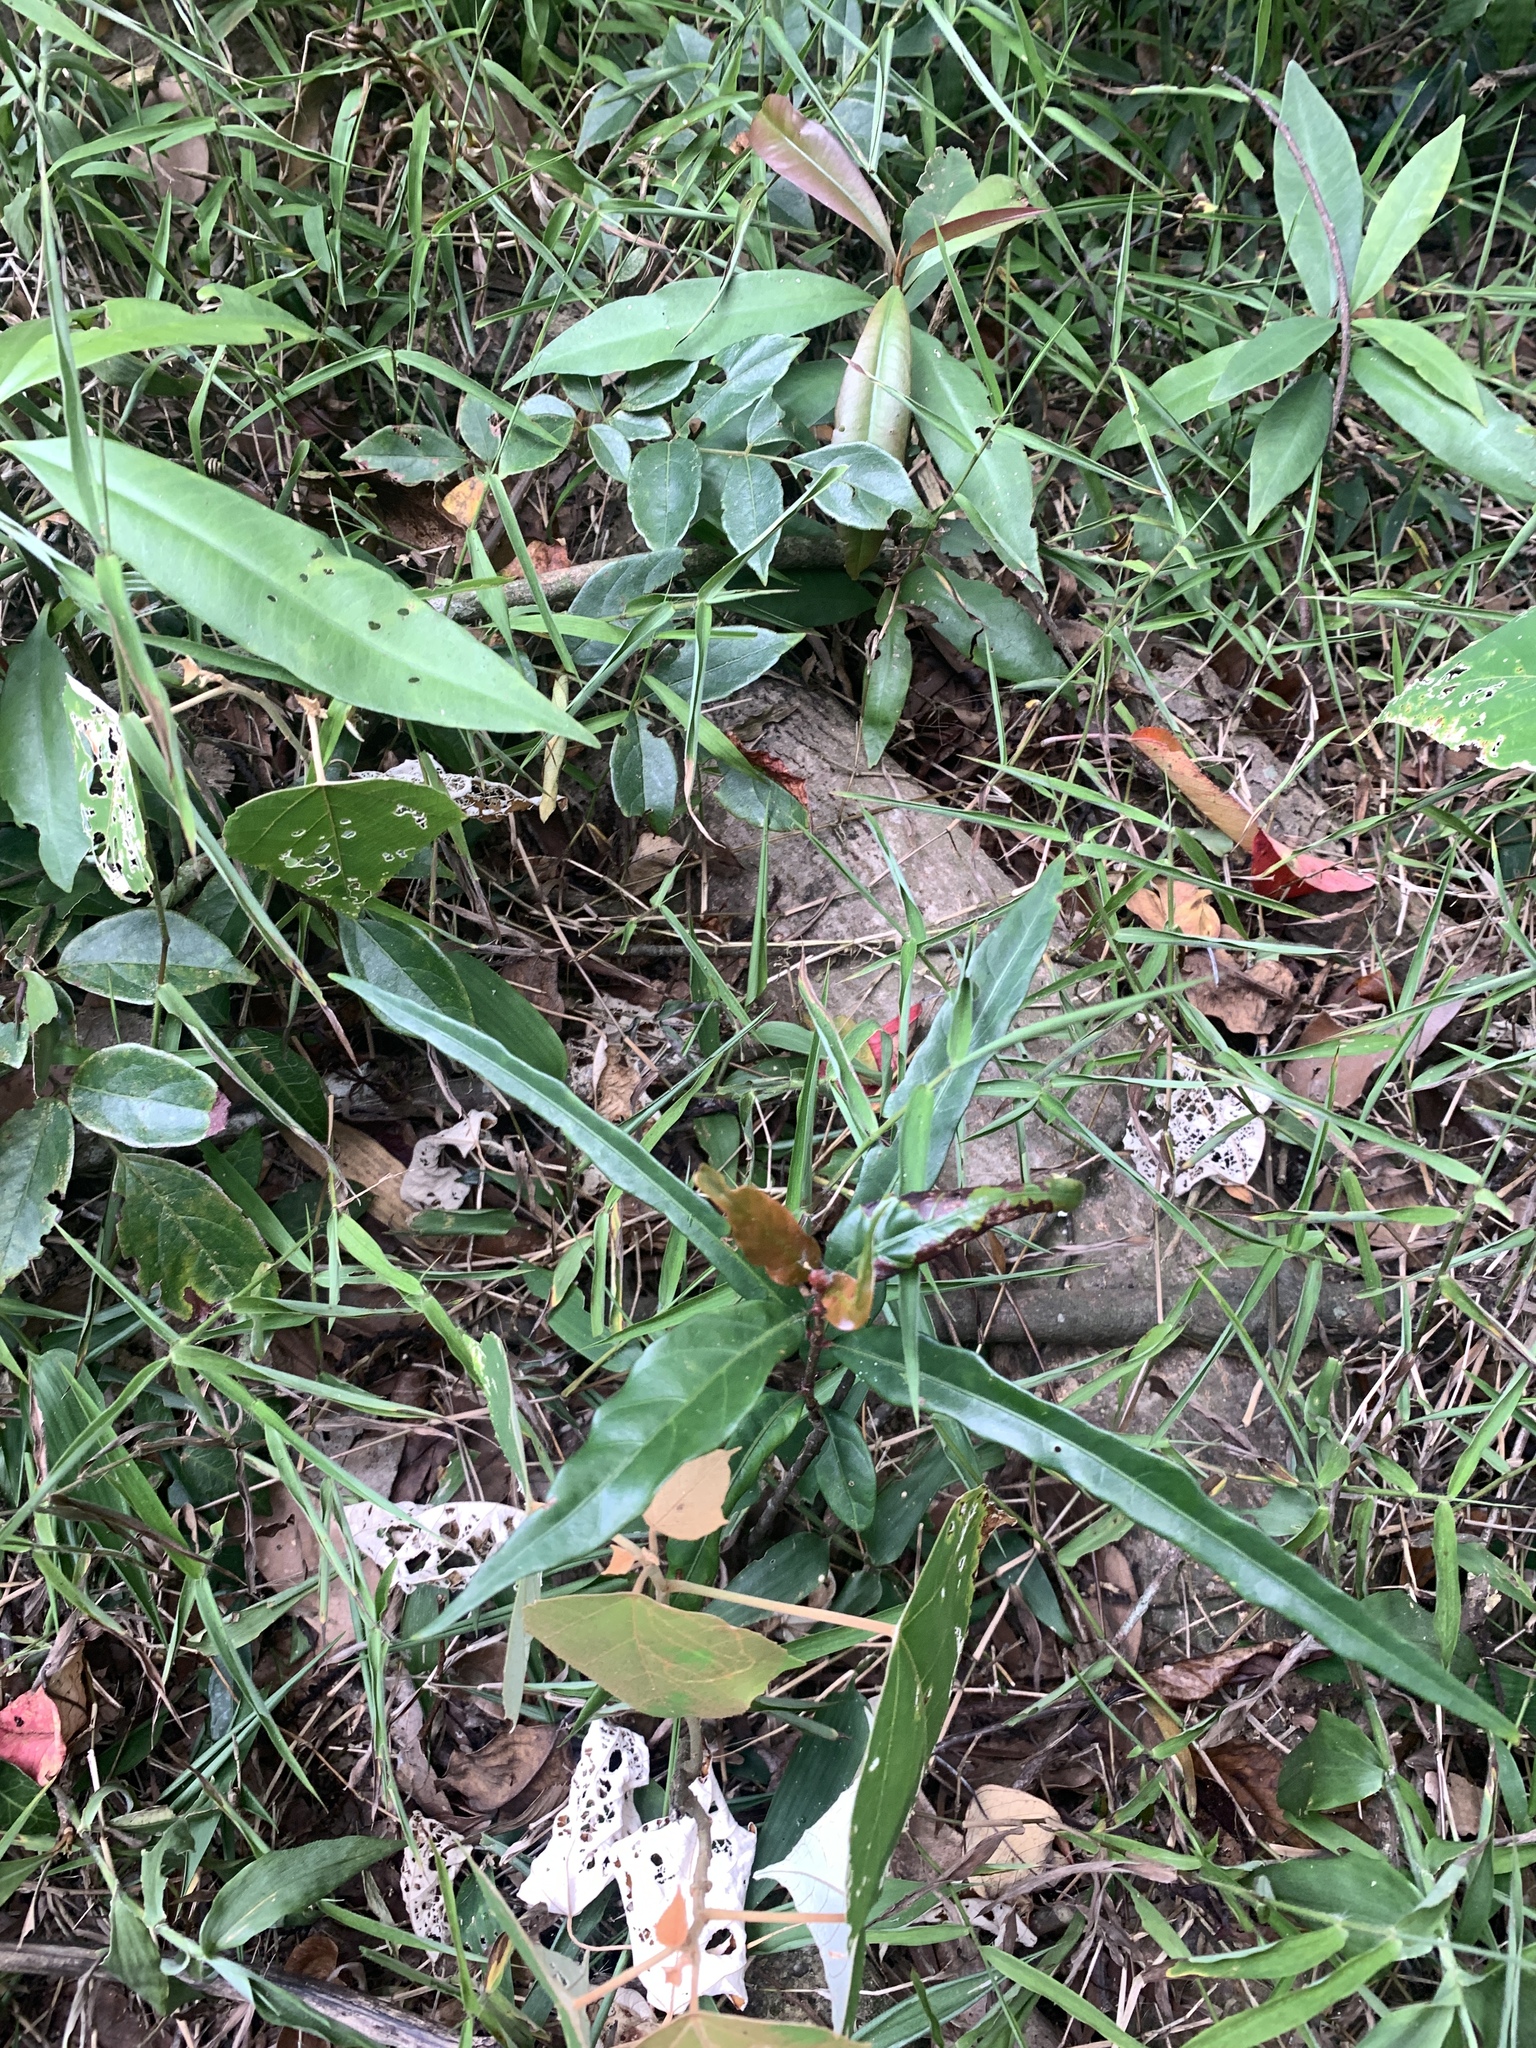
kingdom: Plantae
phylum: Tracheophyta
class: Magnoliopsida
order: Gentianales
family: Rubiaceae
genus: Aidia
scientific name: Aidia cochinchinensis
